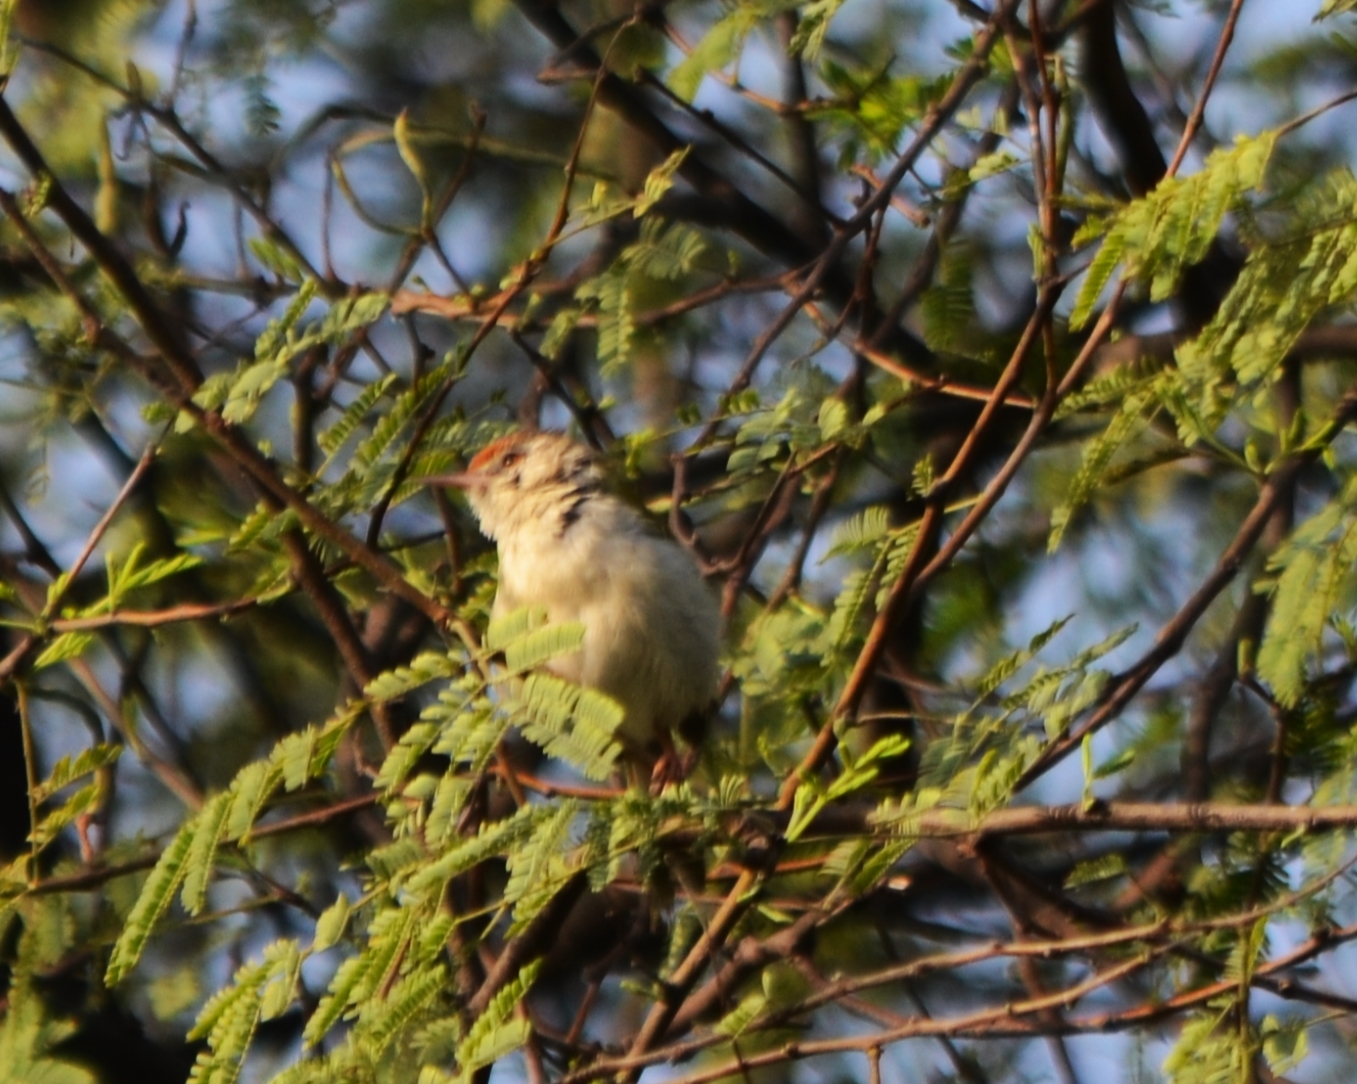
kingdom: Animalia
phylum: Chordata
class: Aves
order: Passeriformes
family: Cisticolidae
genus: Orthotomus
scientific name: Orthotomus sutorius
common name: Common tailorbird
